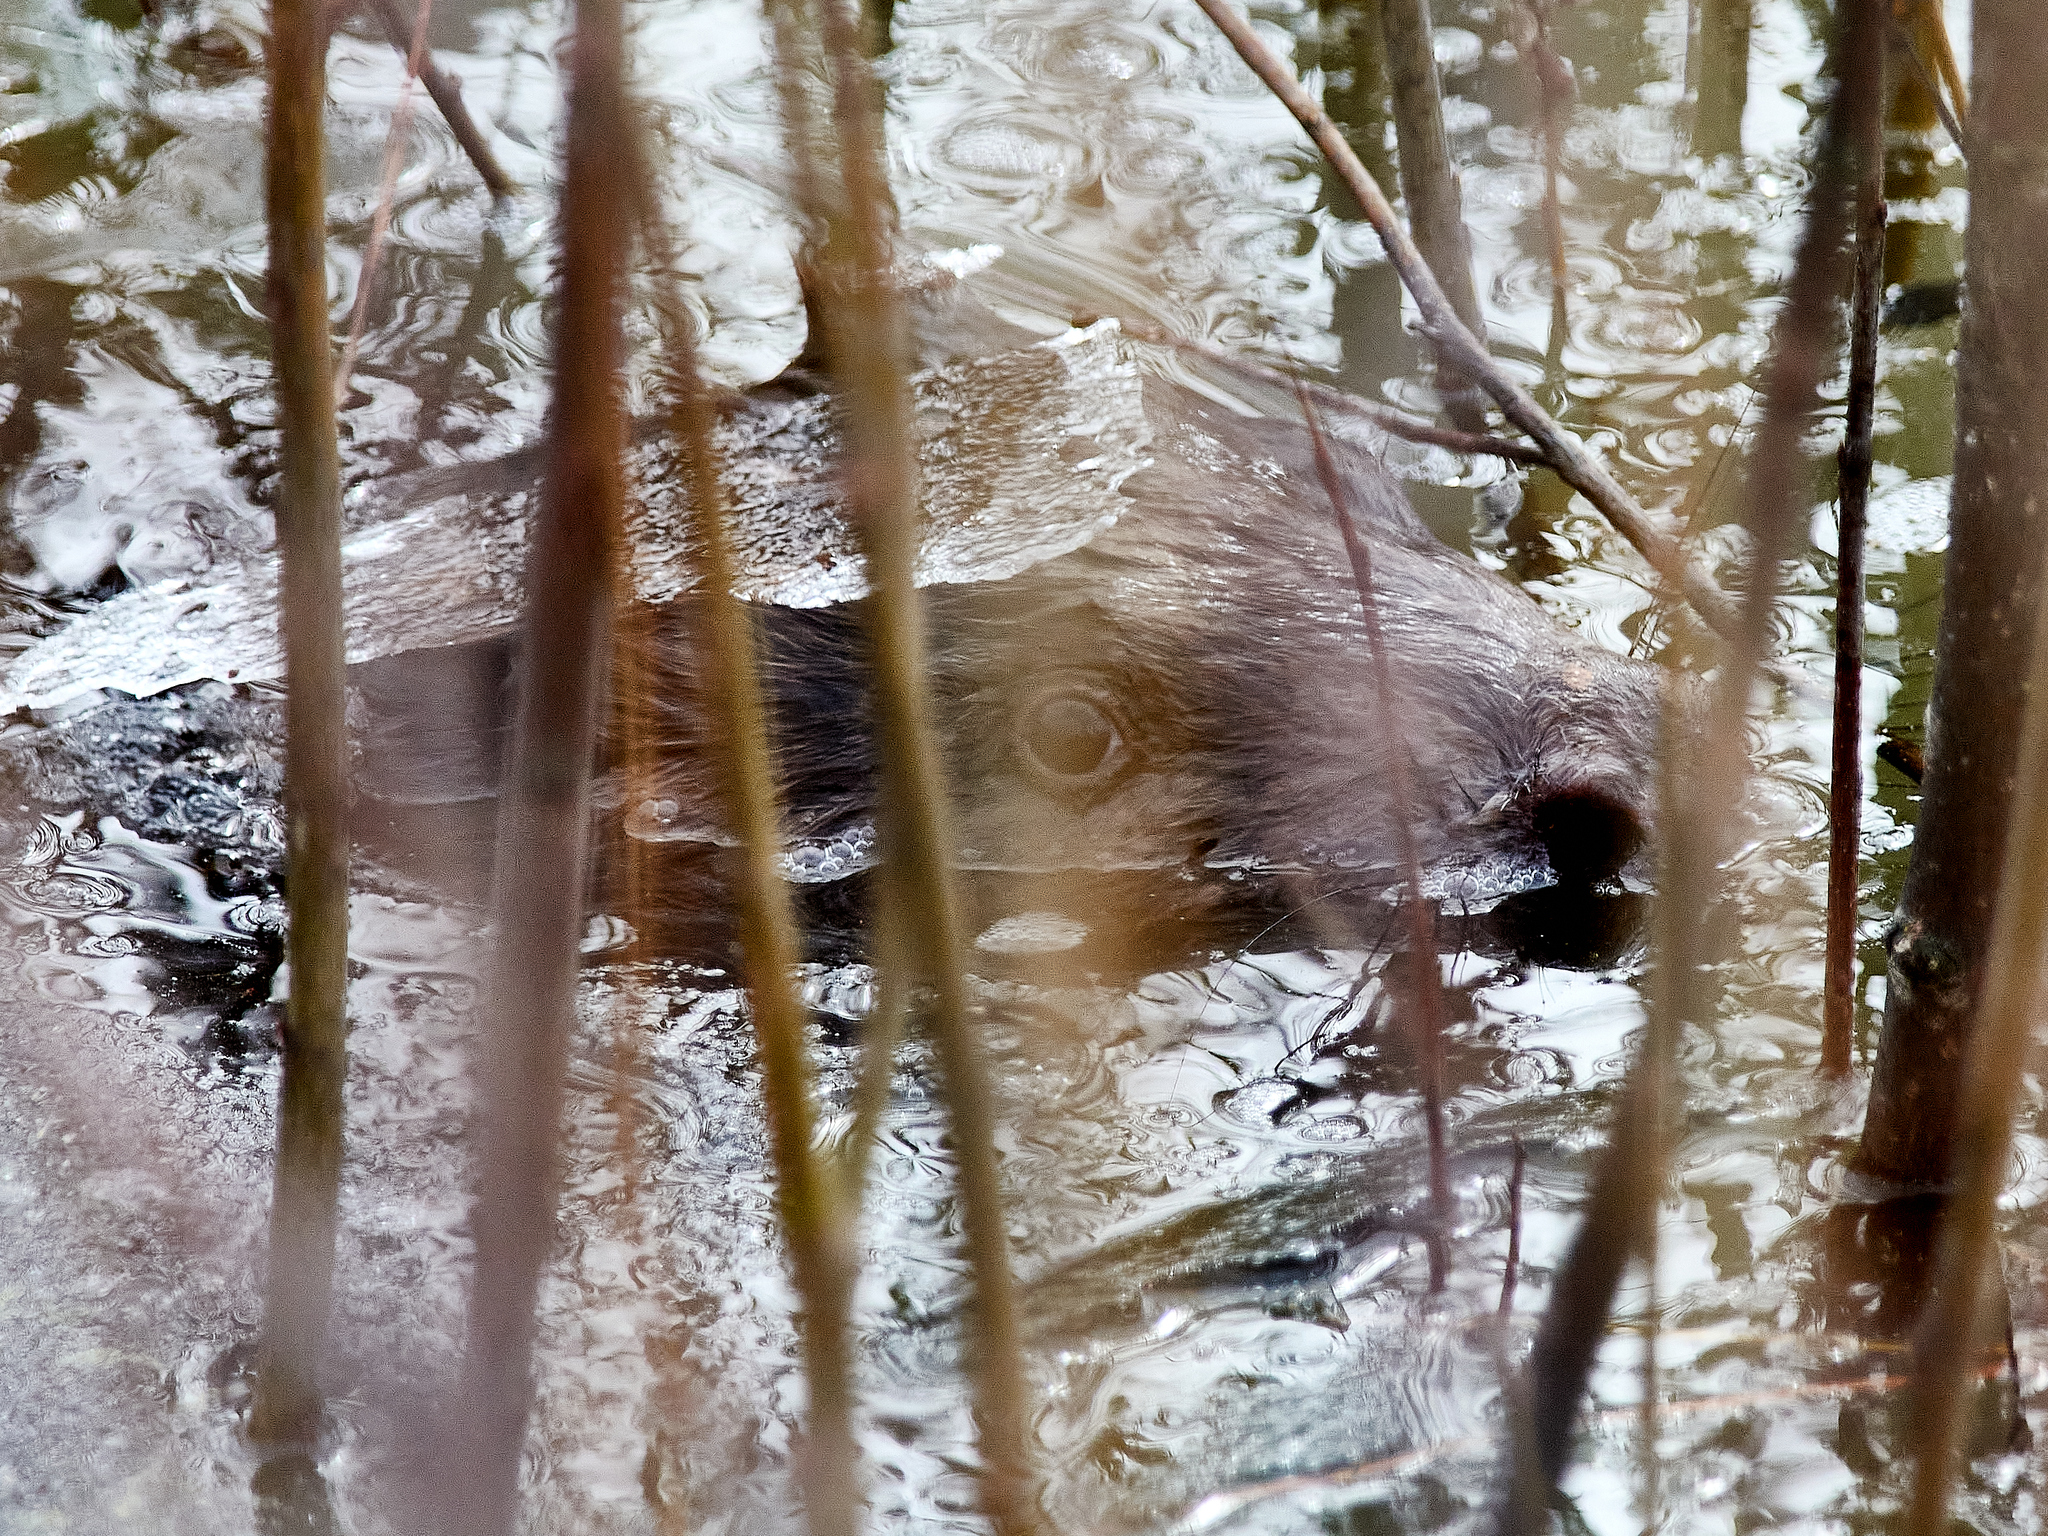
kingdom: Animalia
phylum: Chordata
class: Mammalia
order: Rodentia
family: Castoridae
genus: Castor
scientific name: Castor fiber
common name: Eurasian beaver
